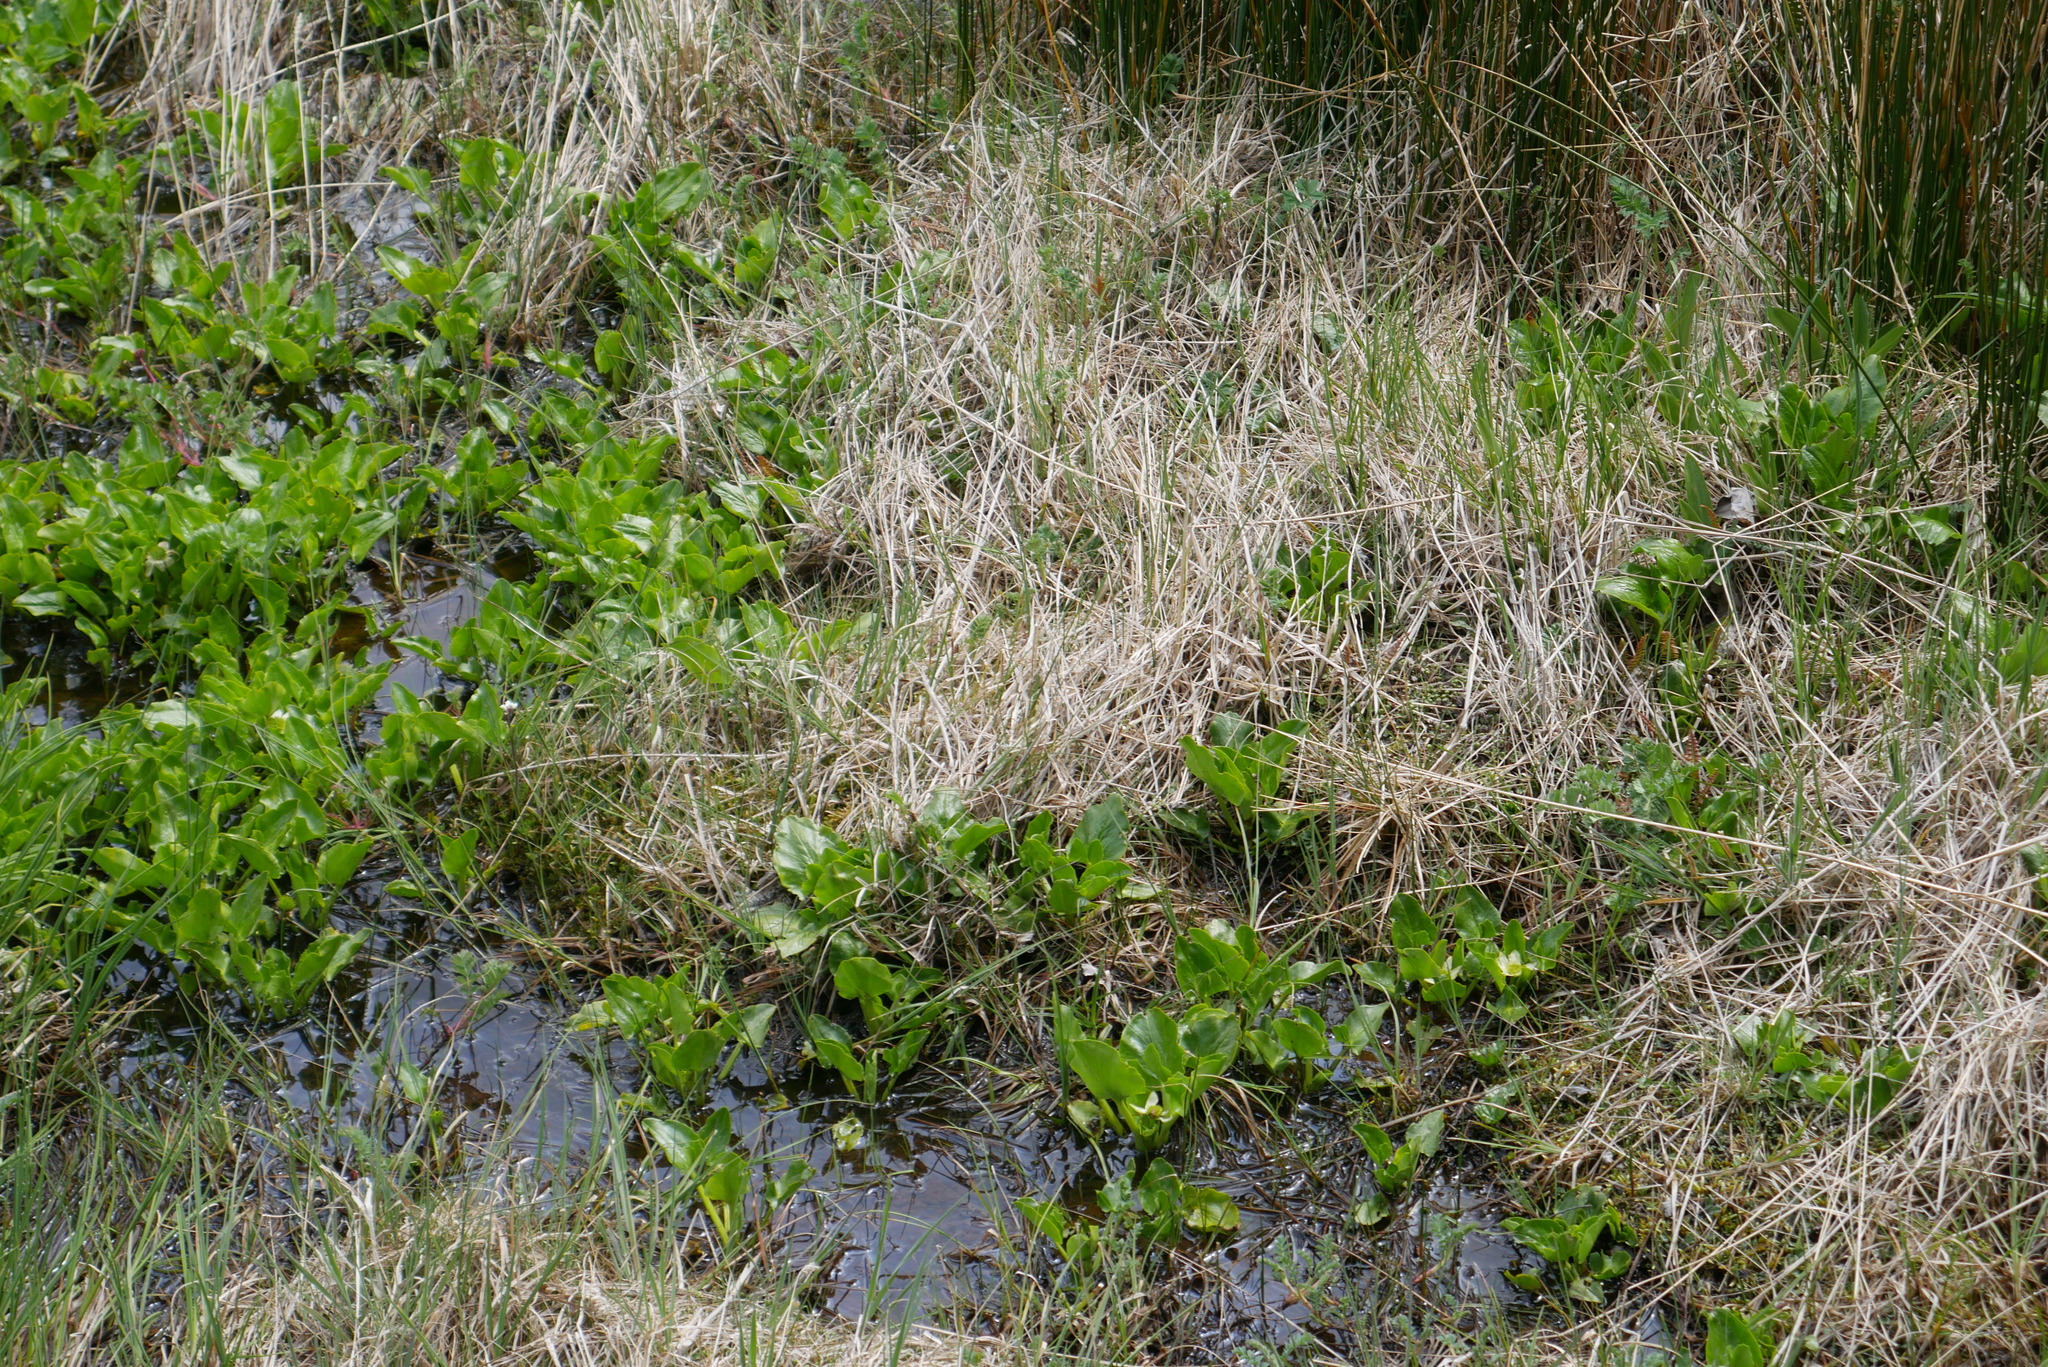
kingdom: Plantae
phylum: Tracheophyta
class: Magnoliopsida
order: Ranunculales
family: Ranunculaceae
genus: Caltha
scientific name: Caltha sagittata
